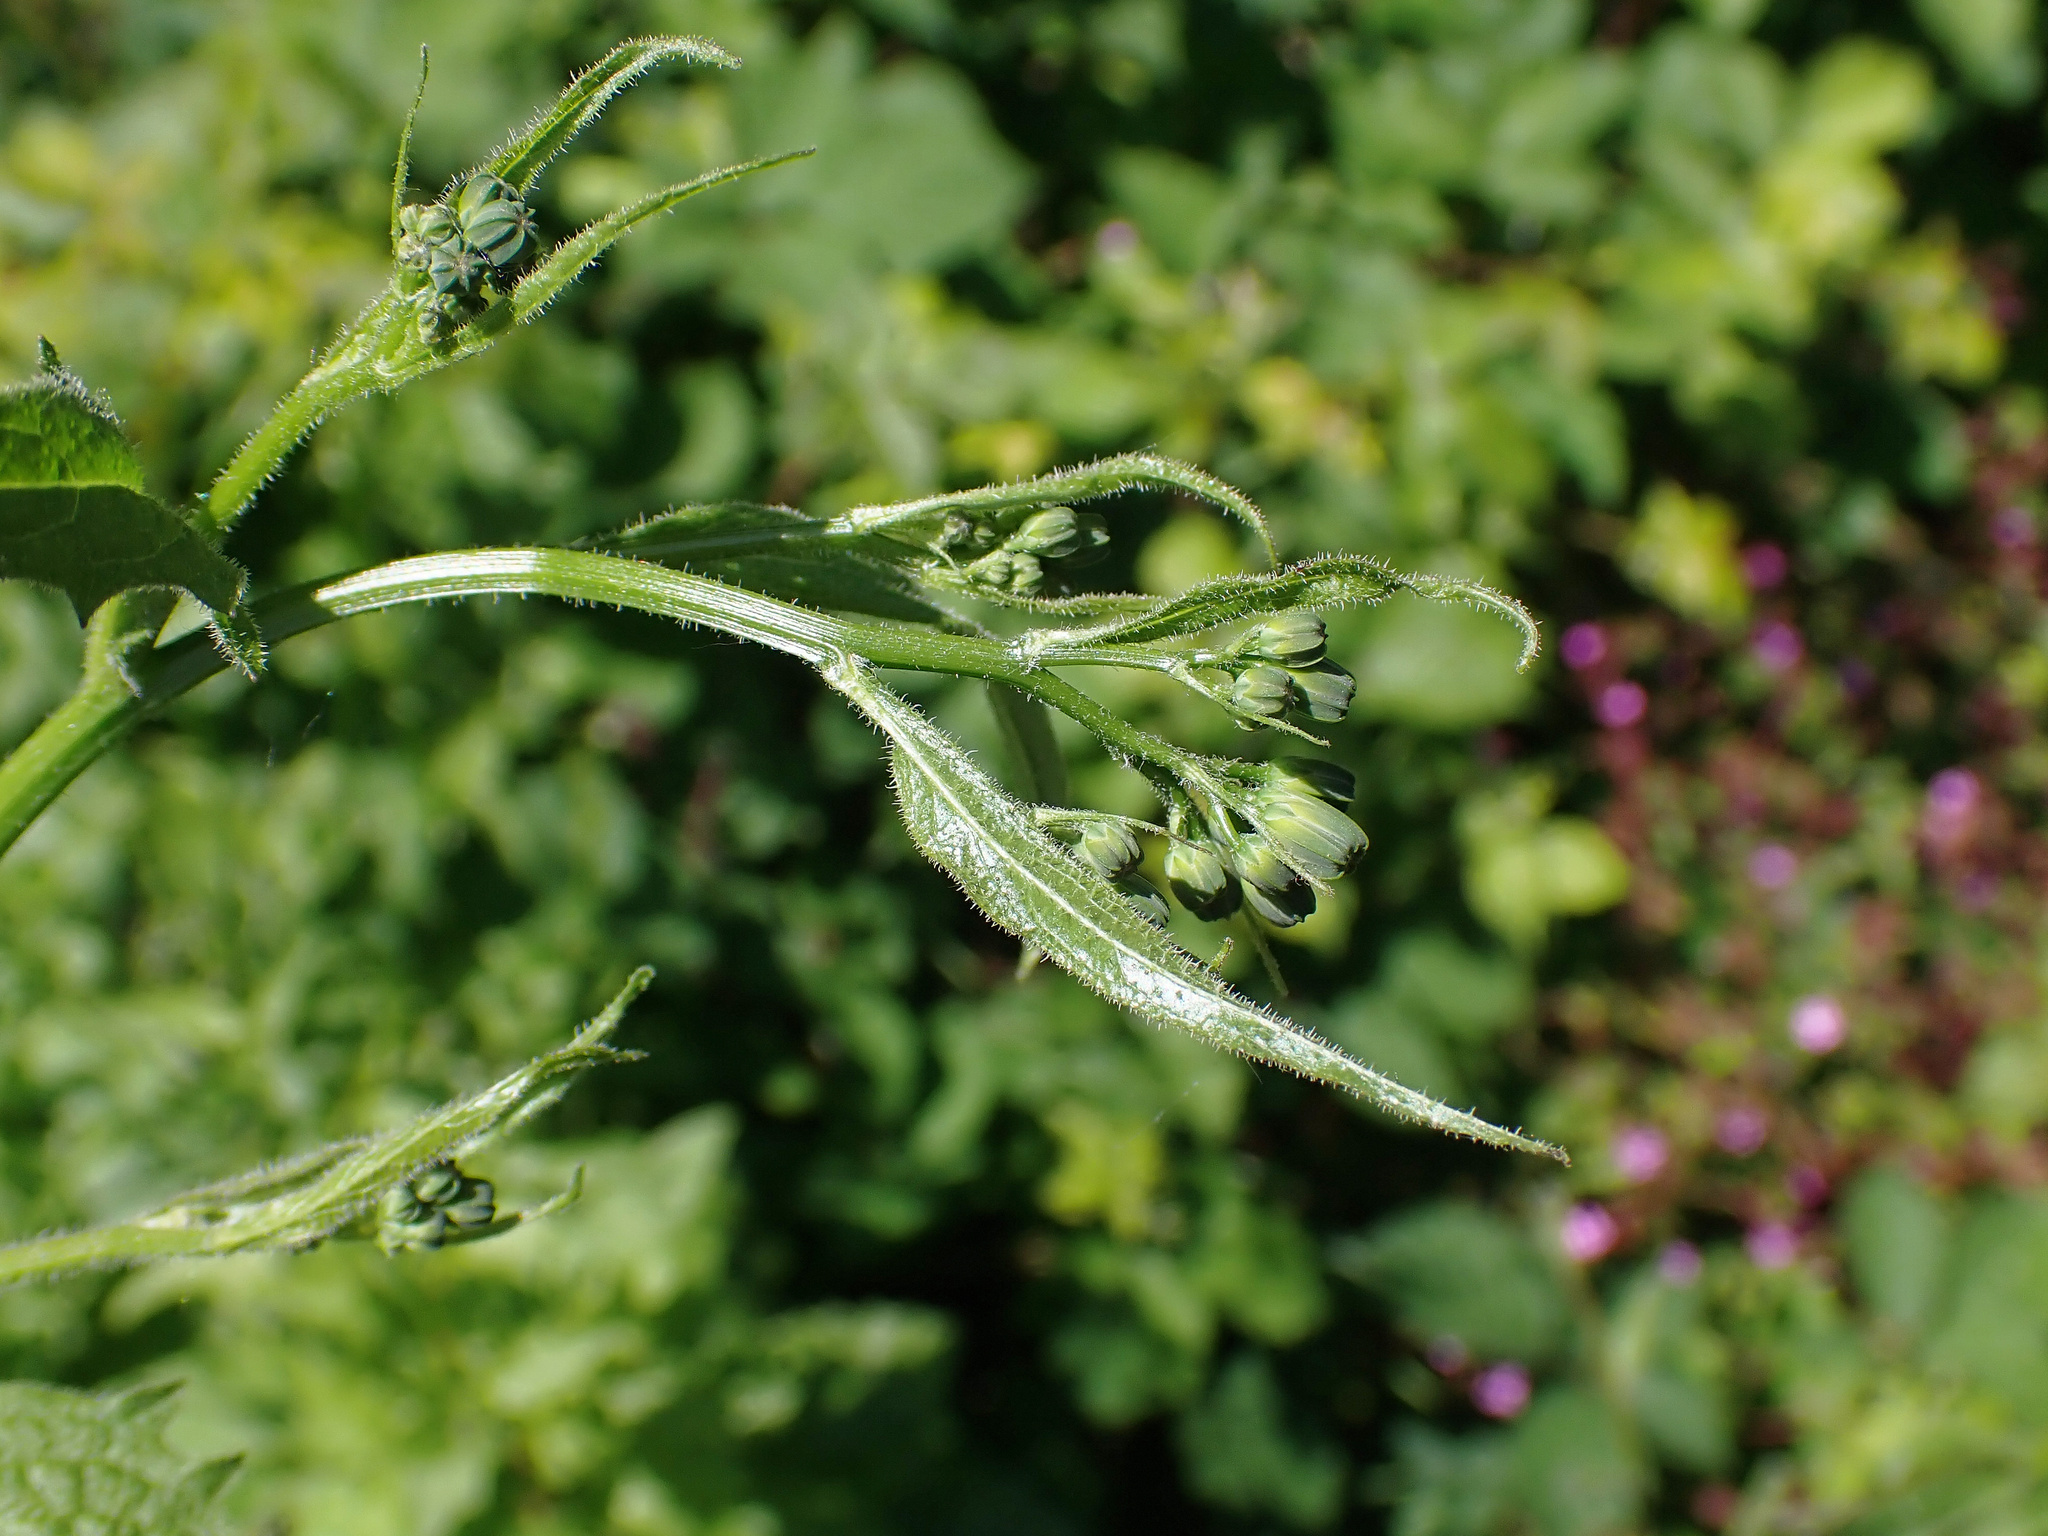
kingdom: Plantae
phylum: Tracheophyta
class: Magnoliopsida
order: Asterales
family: Asteraceae
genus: Lapsana
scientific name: Lapsana communis
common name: Nipplewort
